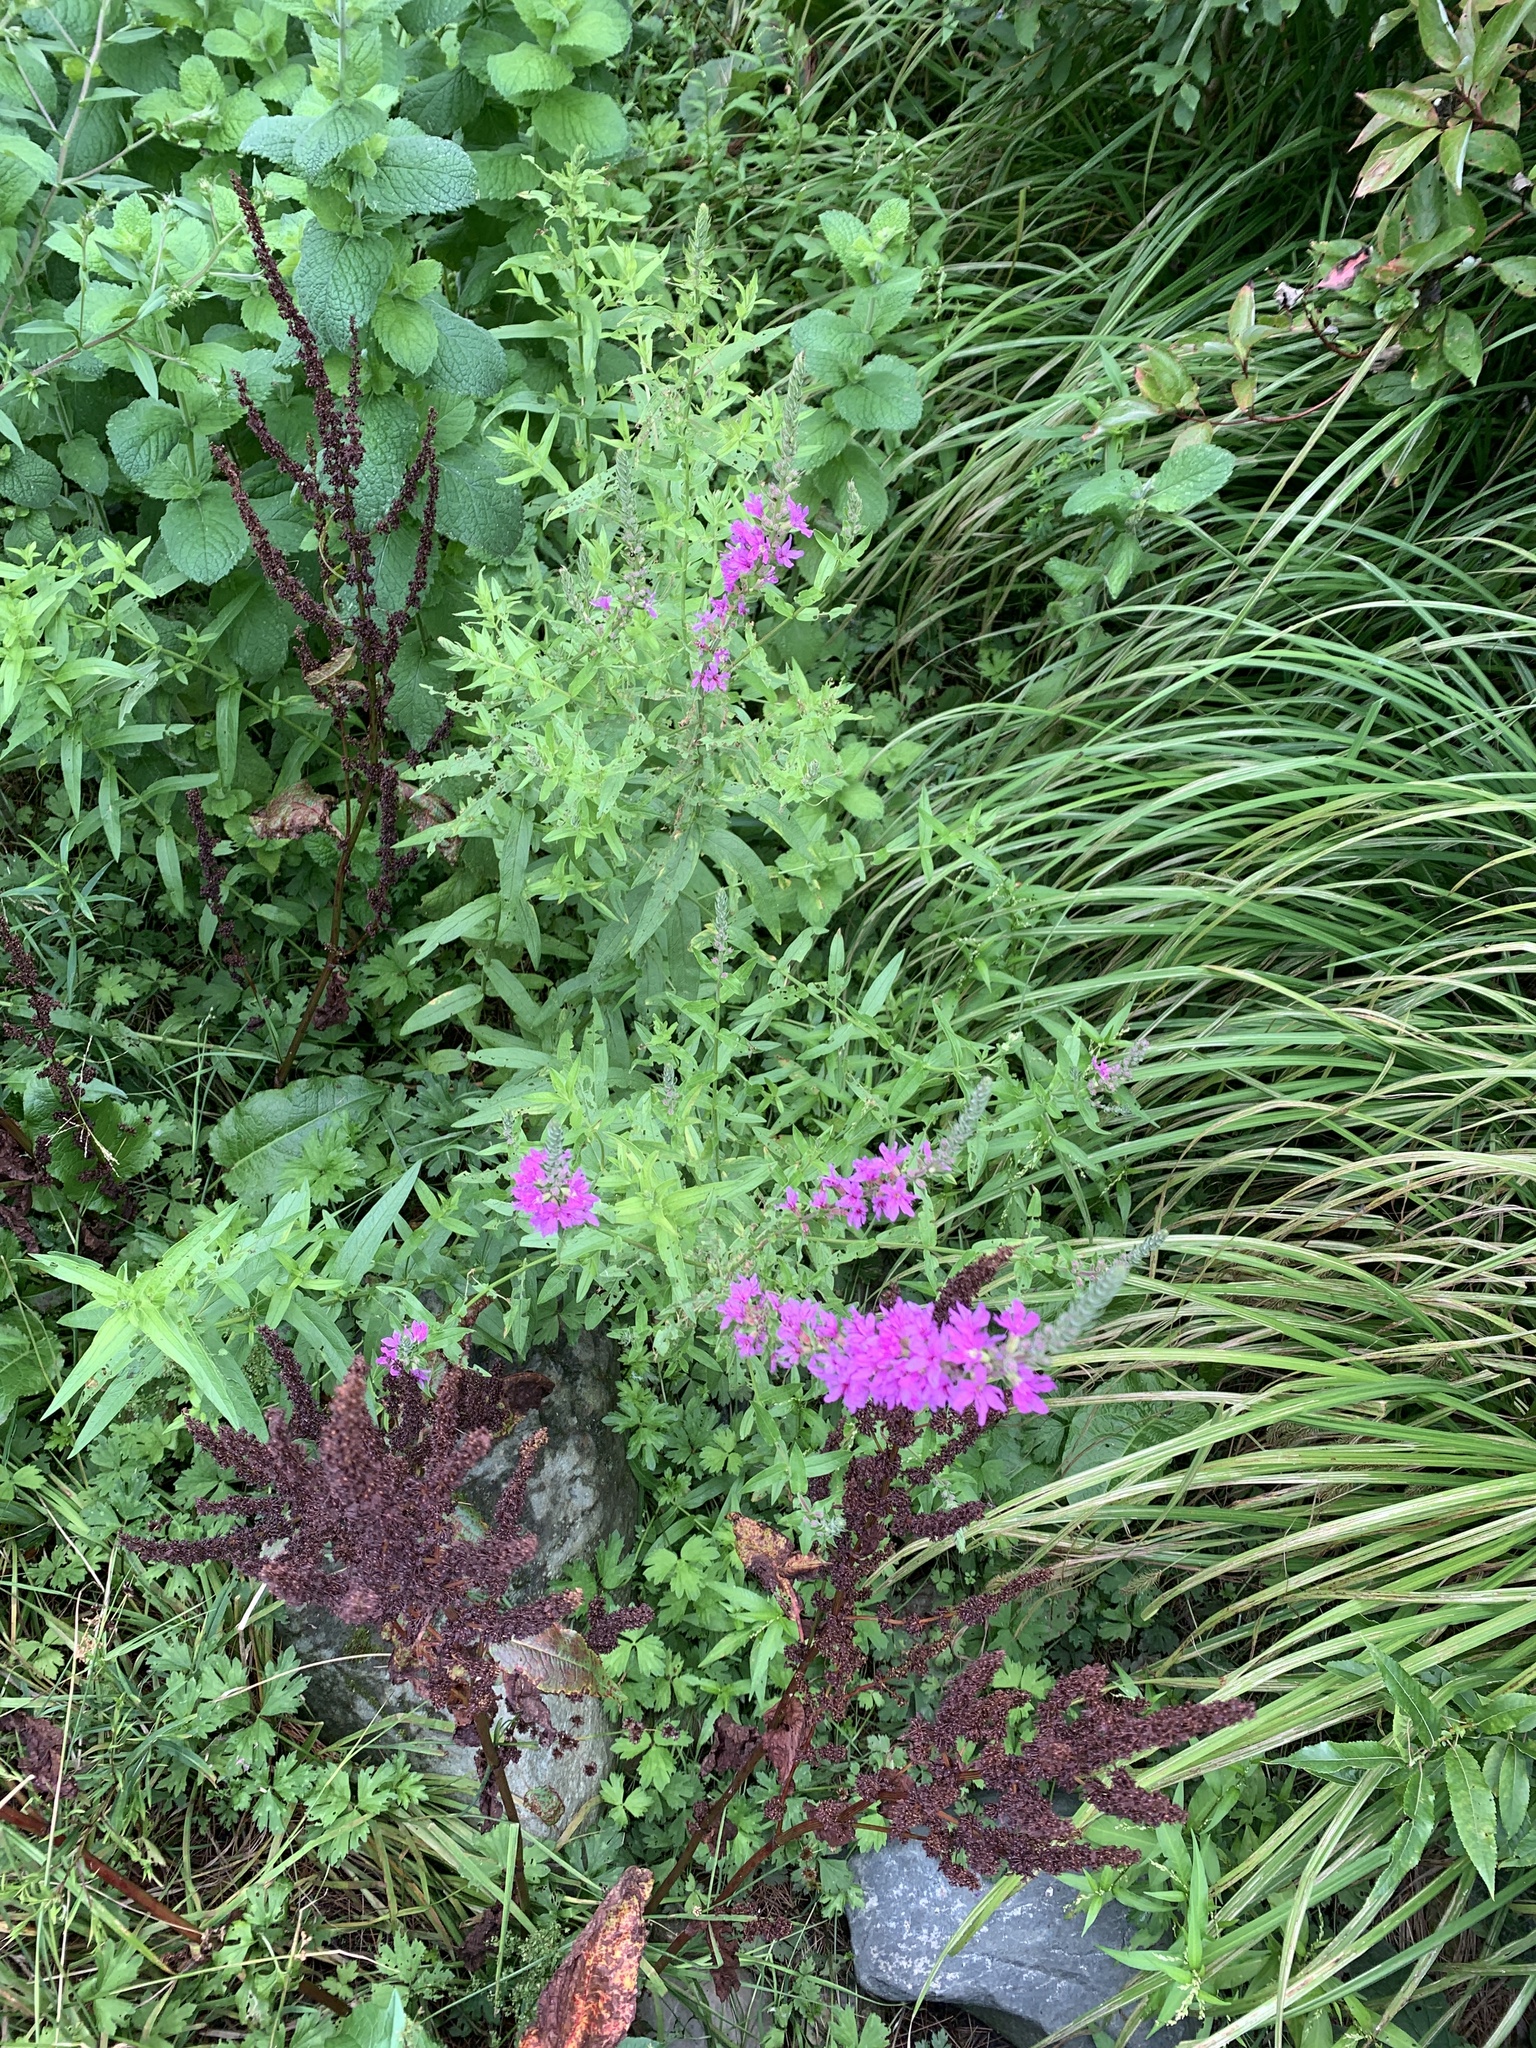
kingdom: Plantae
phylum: Tracheophyta
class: Magnoliopsida
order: Myrtales
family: Lythraceae
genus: Lythrum
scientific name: Lythrum salicaria
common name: Purple loosestrife
